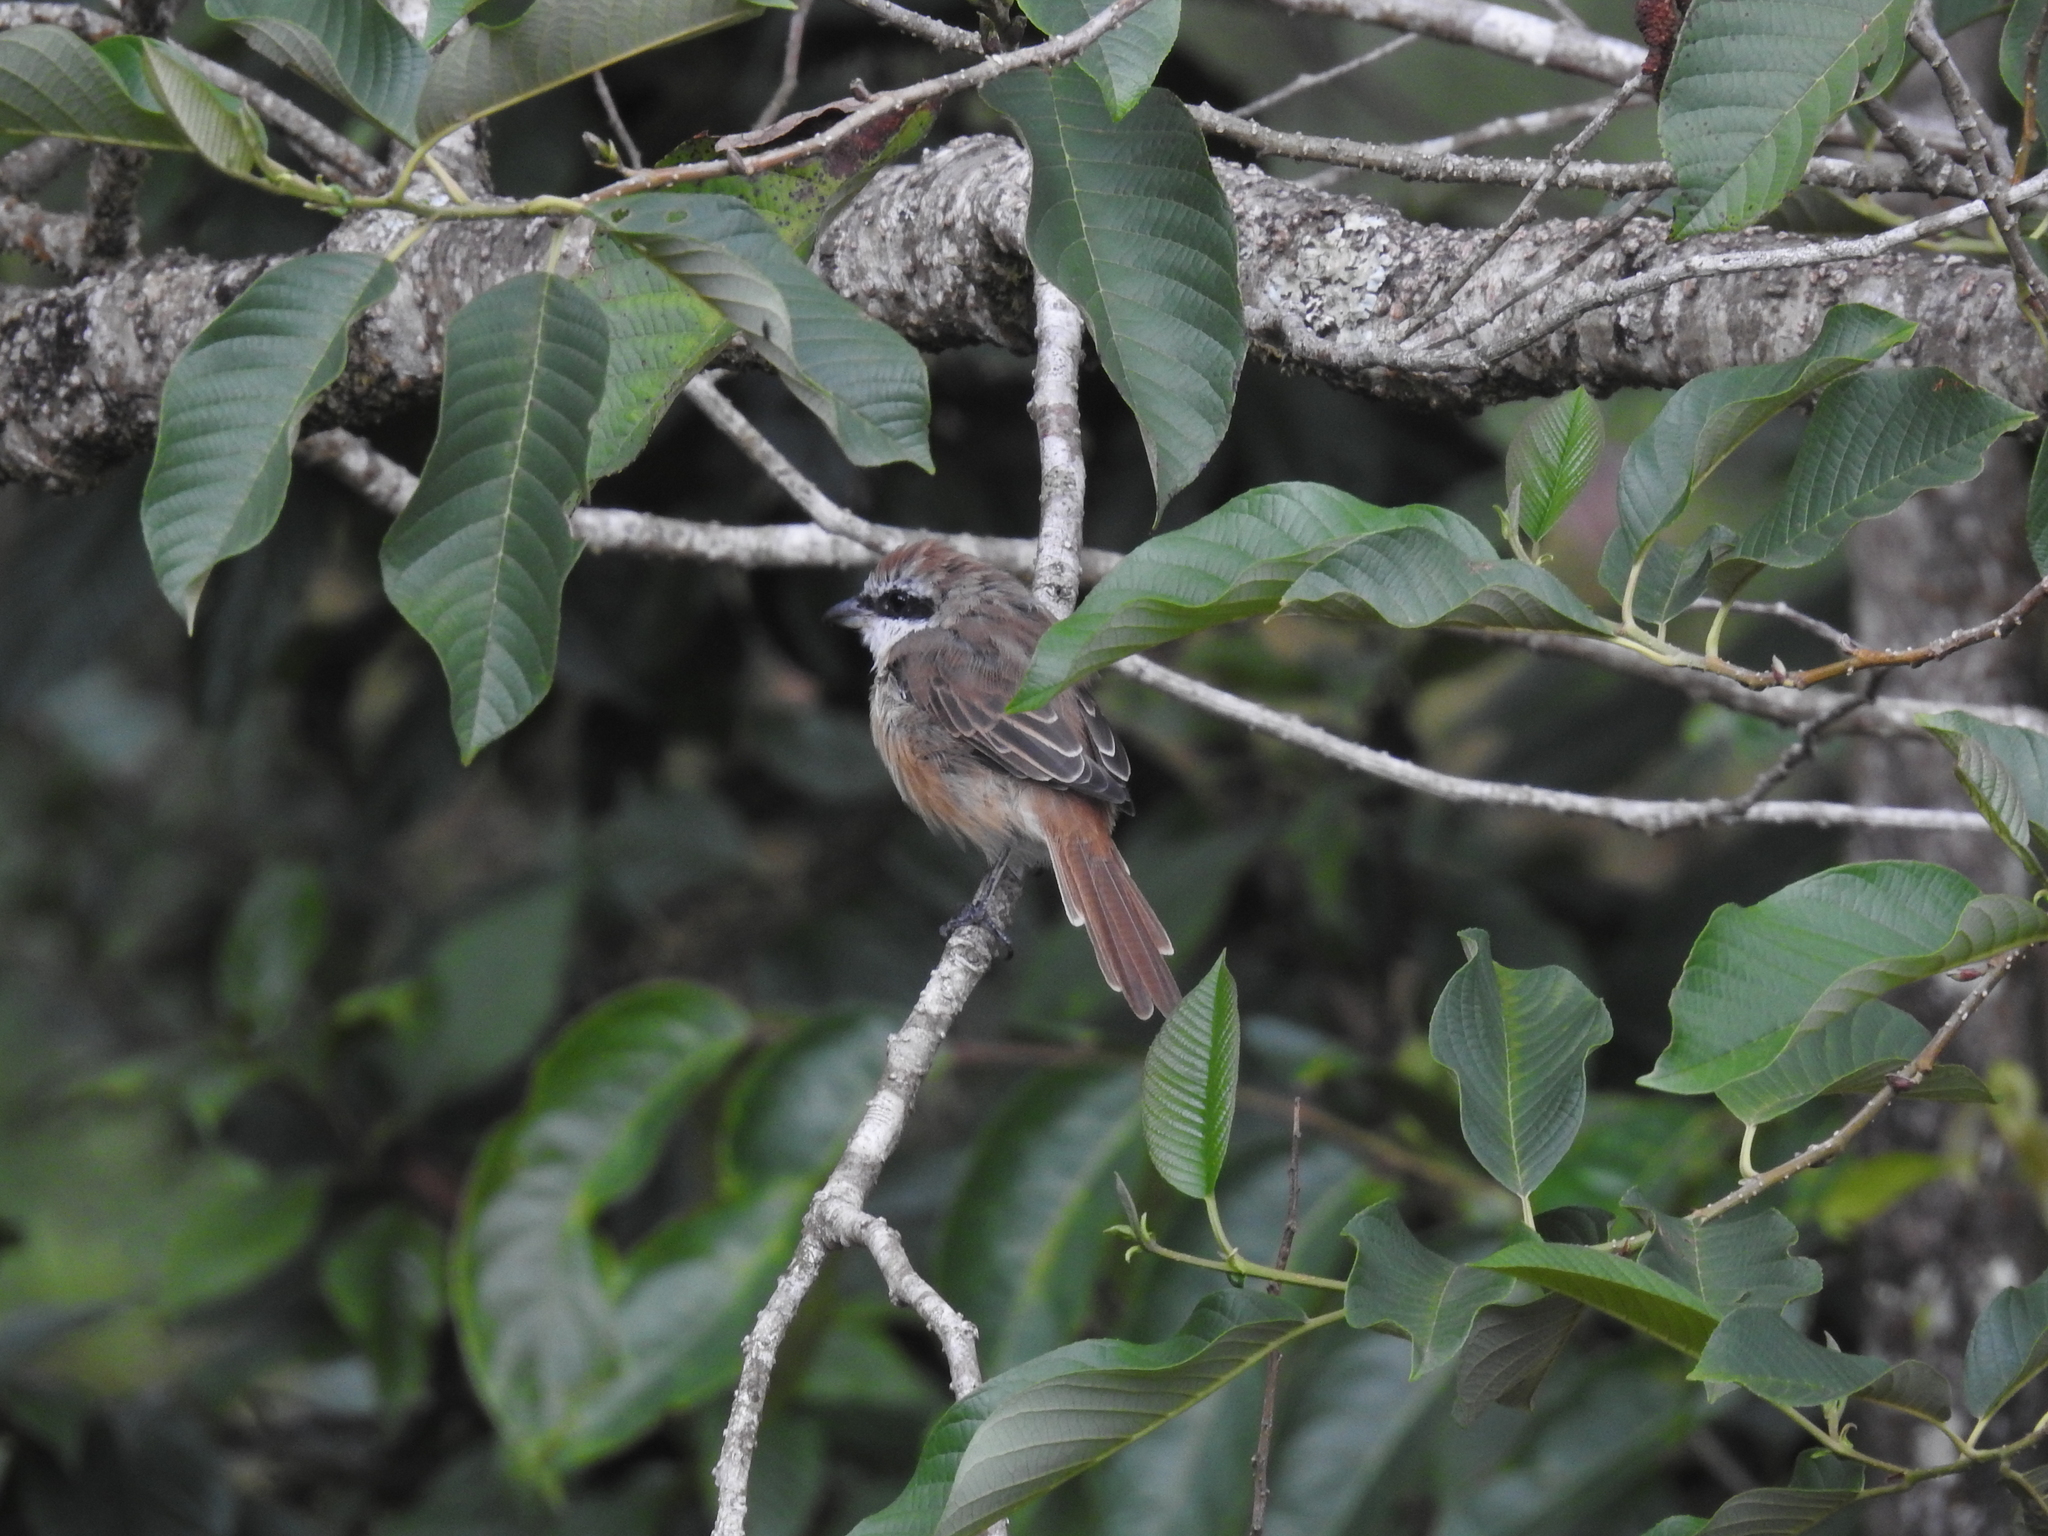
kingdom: Animalia
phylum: Chordata
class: Aves
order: Passeriformes
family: Laniidae
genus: Lanius
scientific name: Lanius cristatus
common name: Brown shrike
